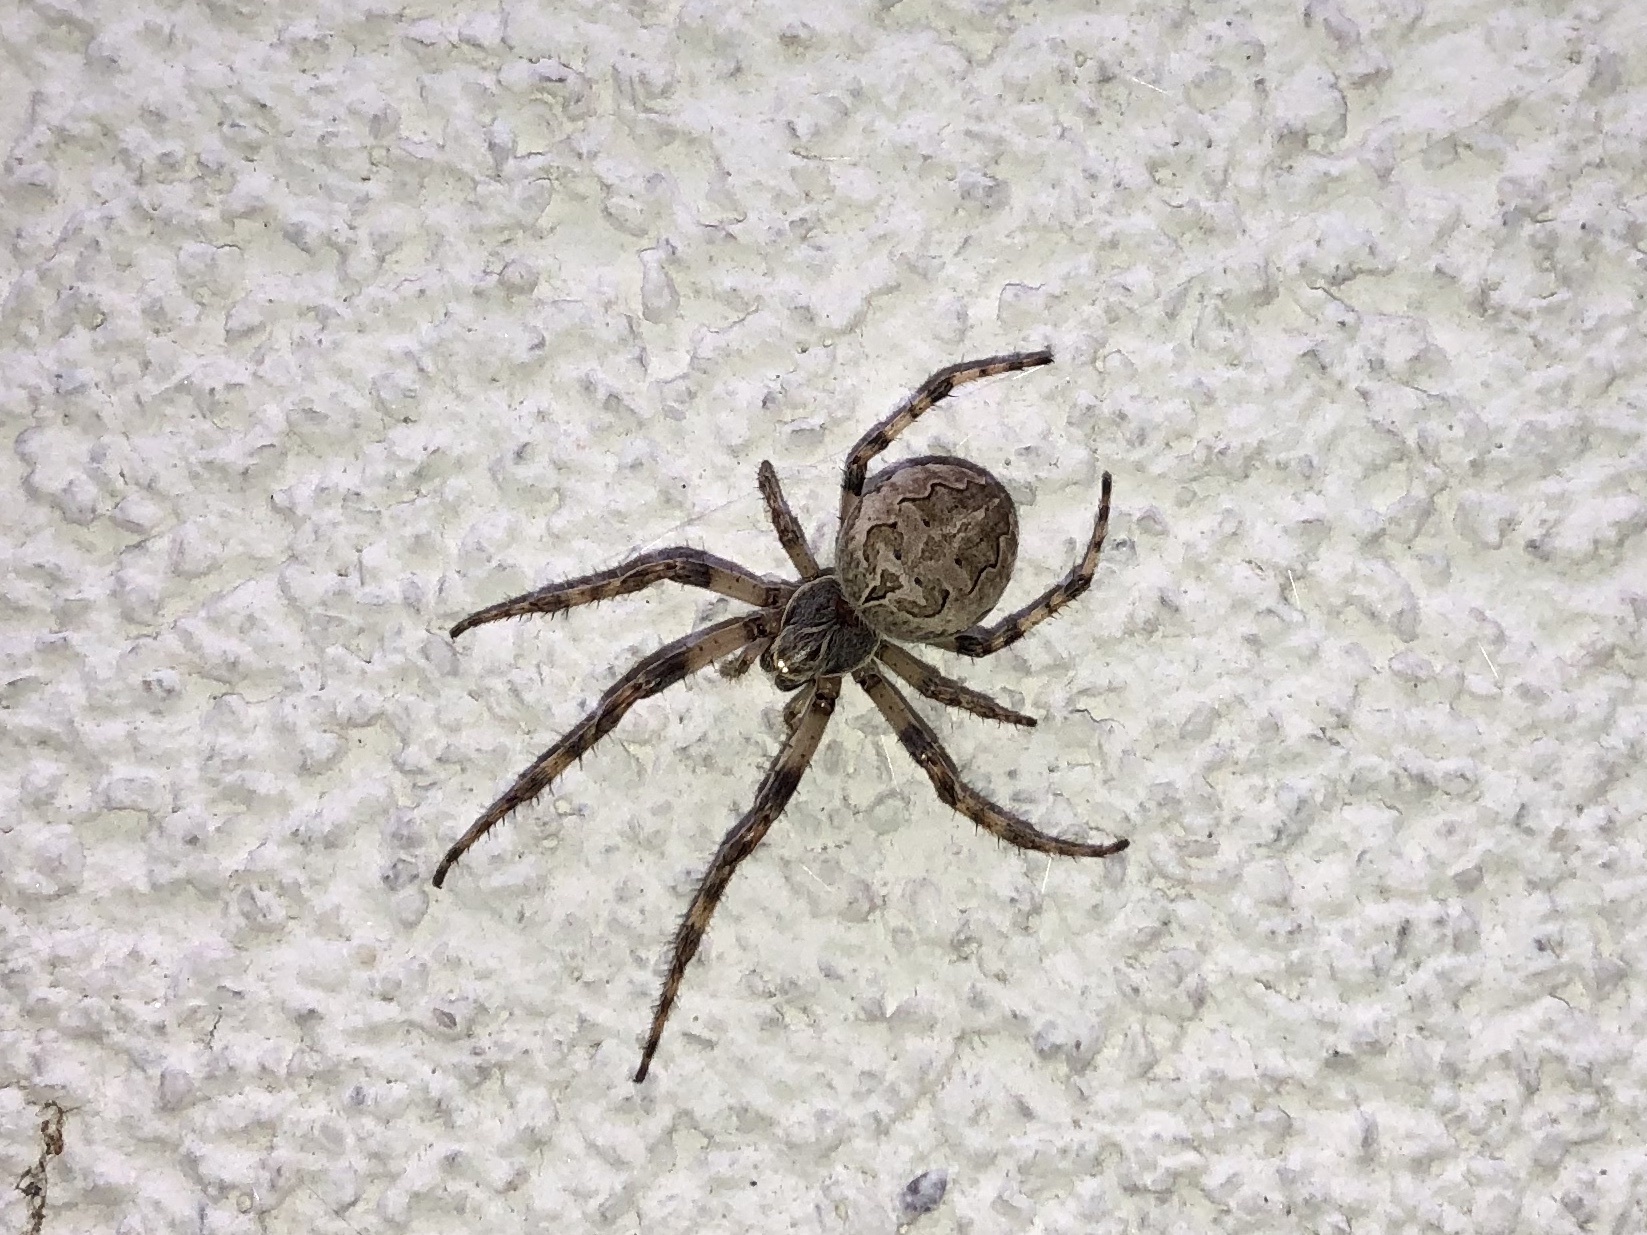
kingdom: Animalia
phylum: Arthropoda
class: Arachnida
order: Araneae
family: Araneidae
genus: Larinioides
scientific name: Larinioides sclopetarius
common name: Bridge orbweaver
